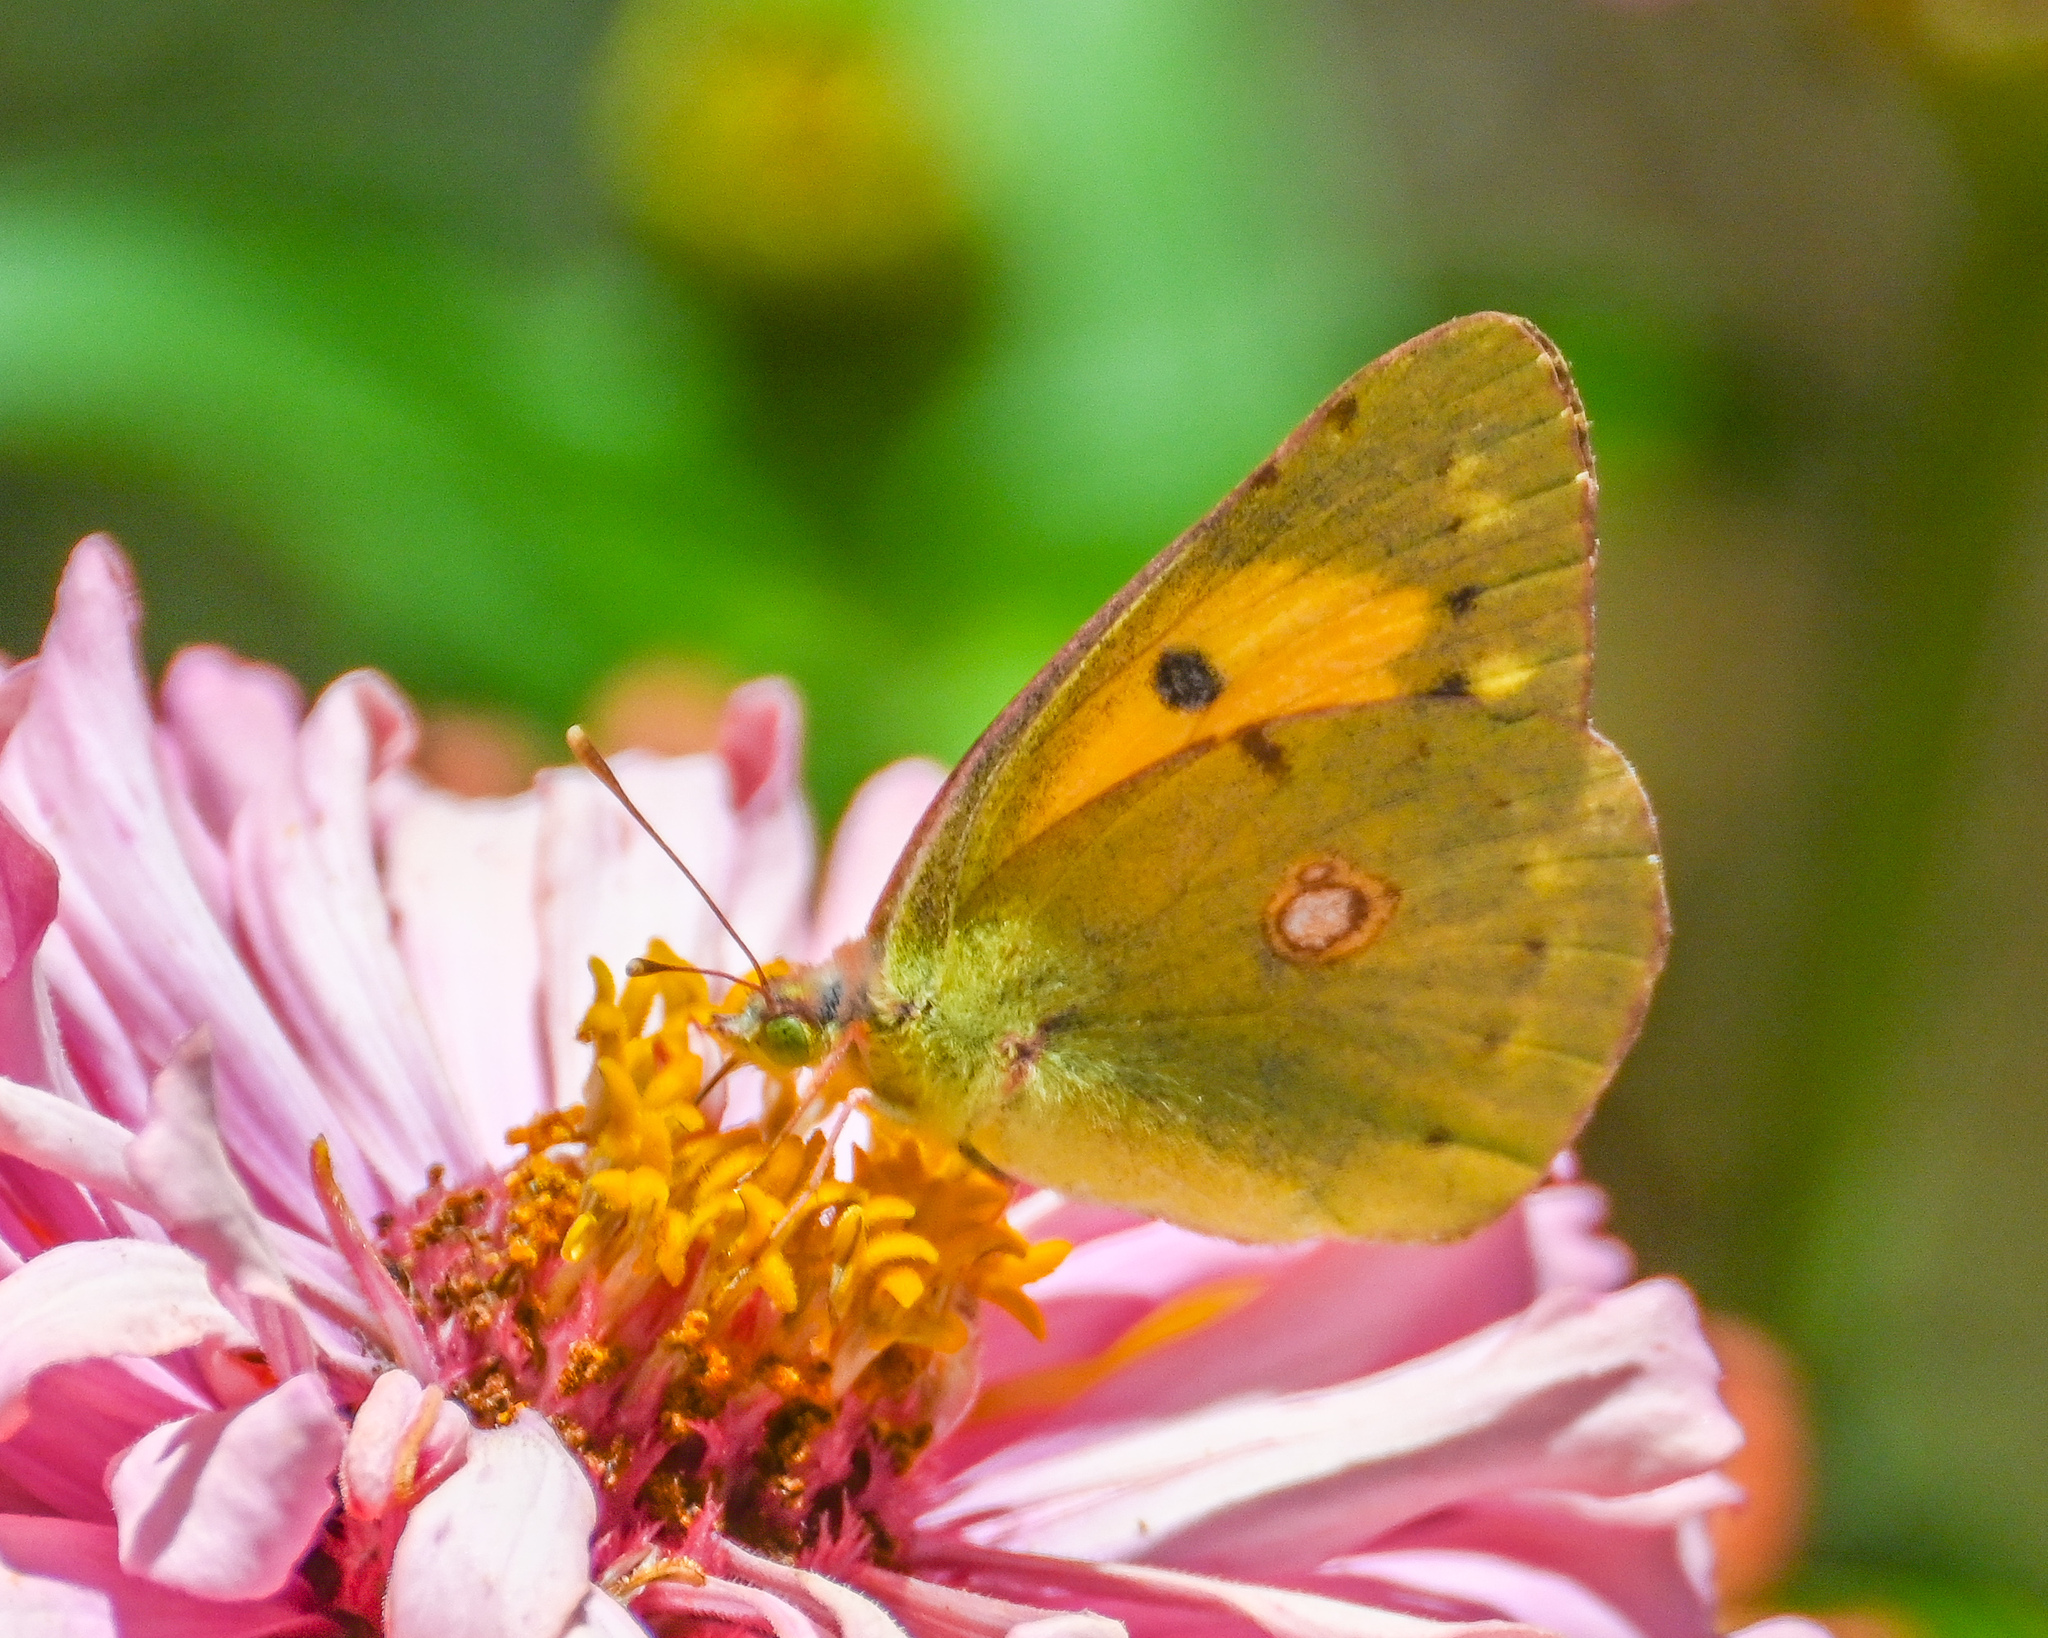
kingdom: Animalia
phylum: Arthropoda
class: Insecta
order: Lepidoptera
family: Pieridae
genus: Colias
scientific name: Colias croceus
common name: Clouded yellow
